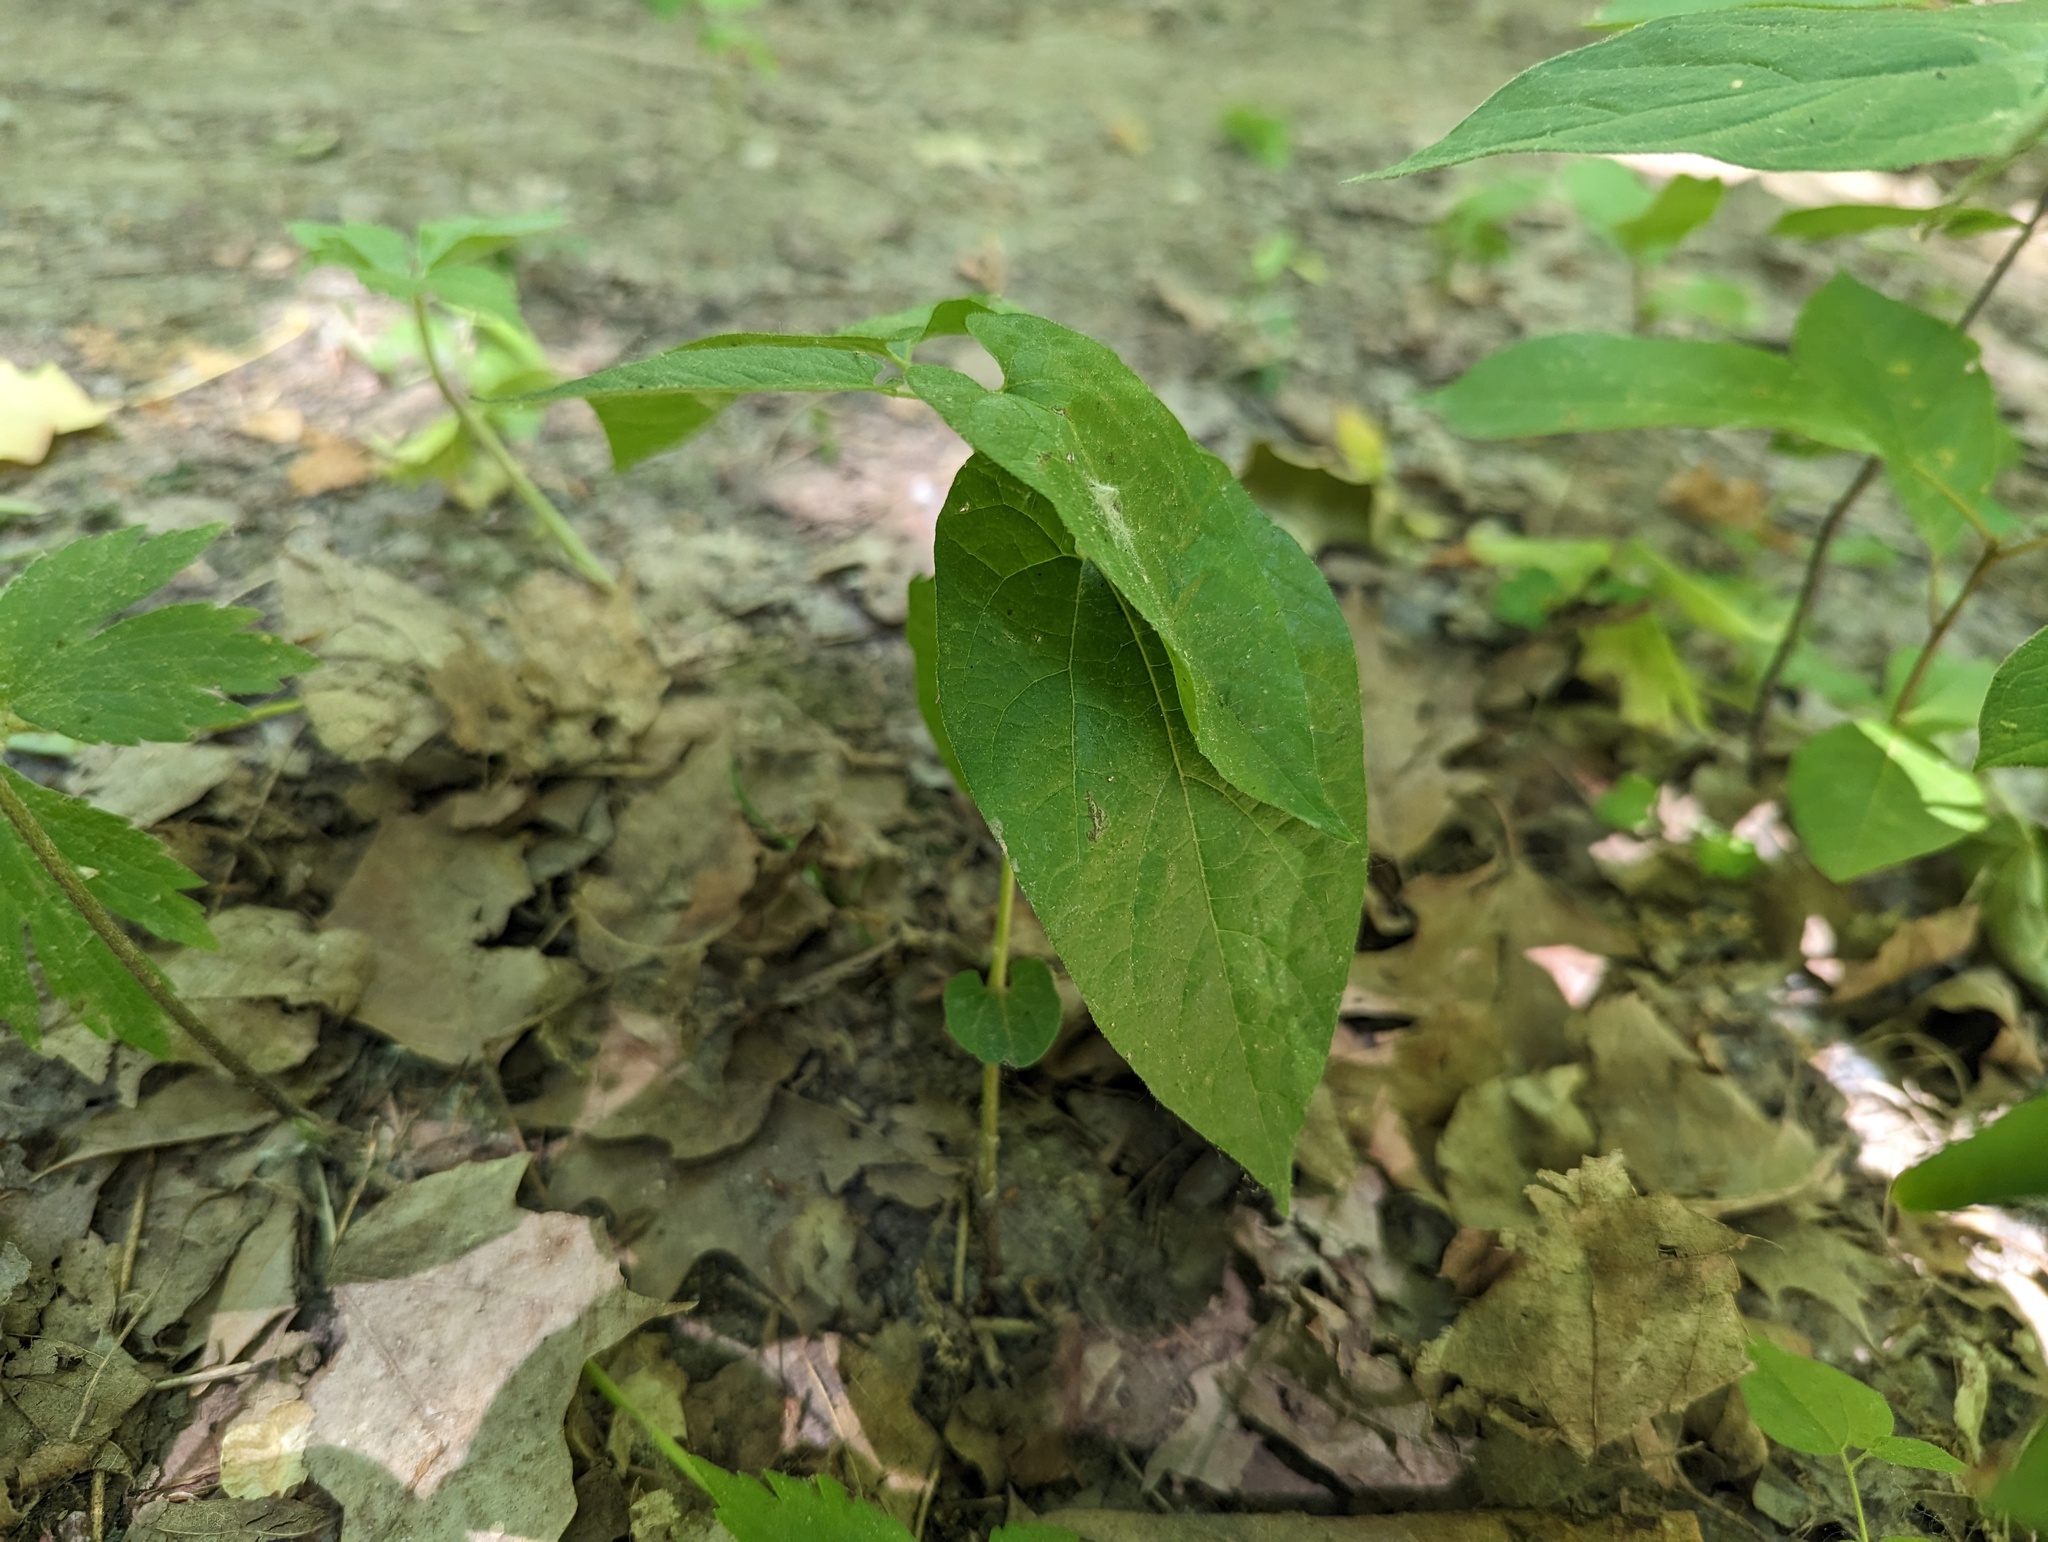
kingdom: Plantae
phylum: Tracheophyta
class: Magnoliopsida
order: Piperales
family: Aristolochiaceae
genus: Endodeca
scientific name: Endodeca serpentaria
